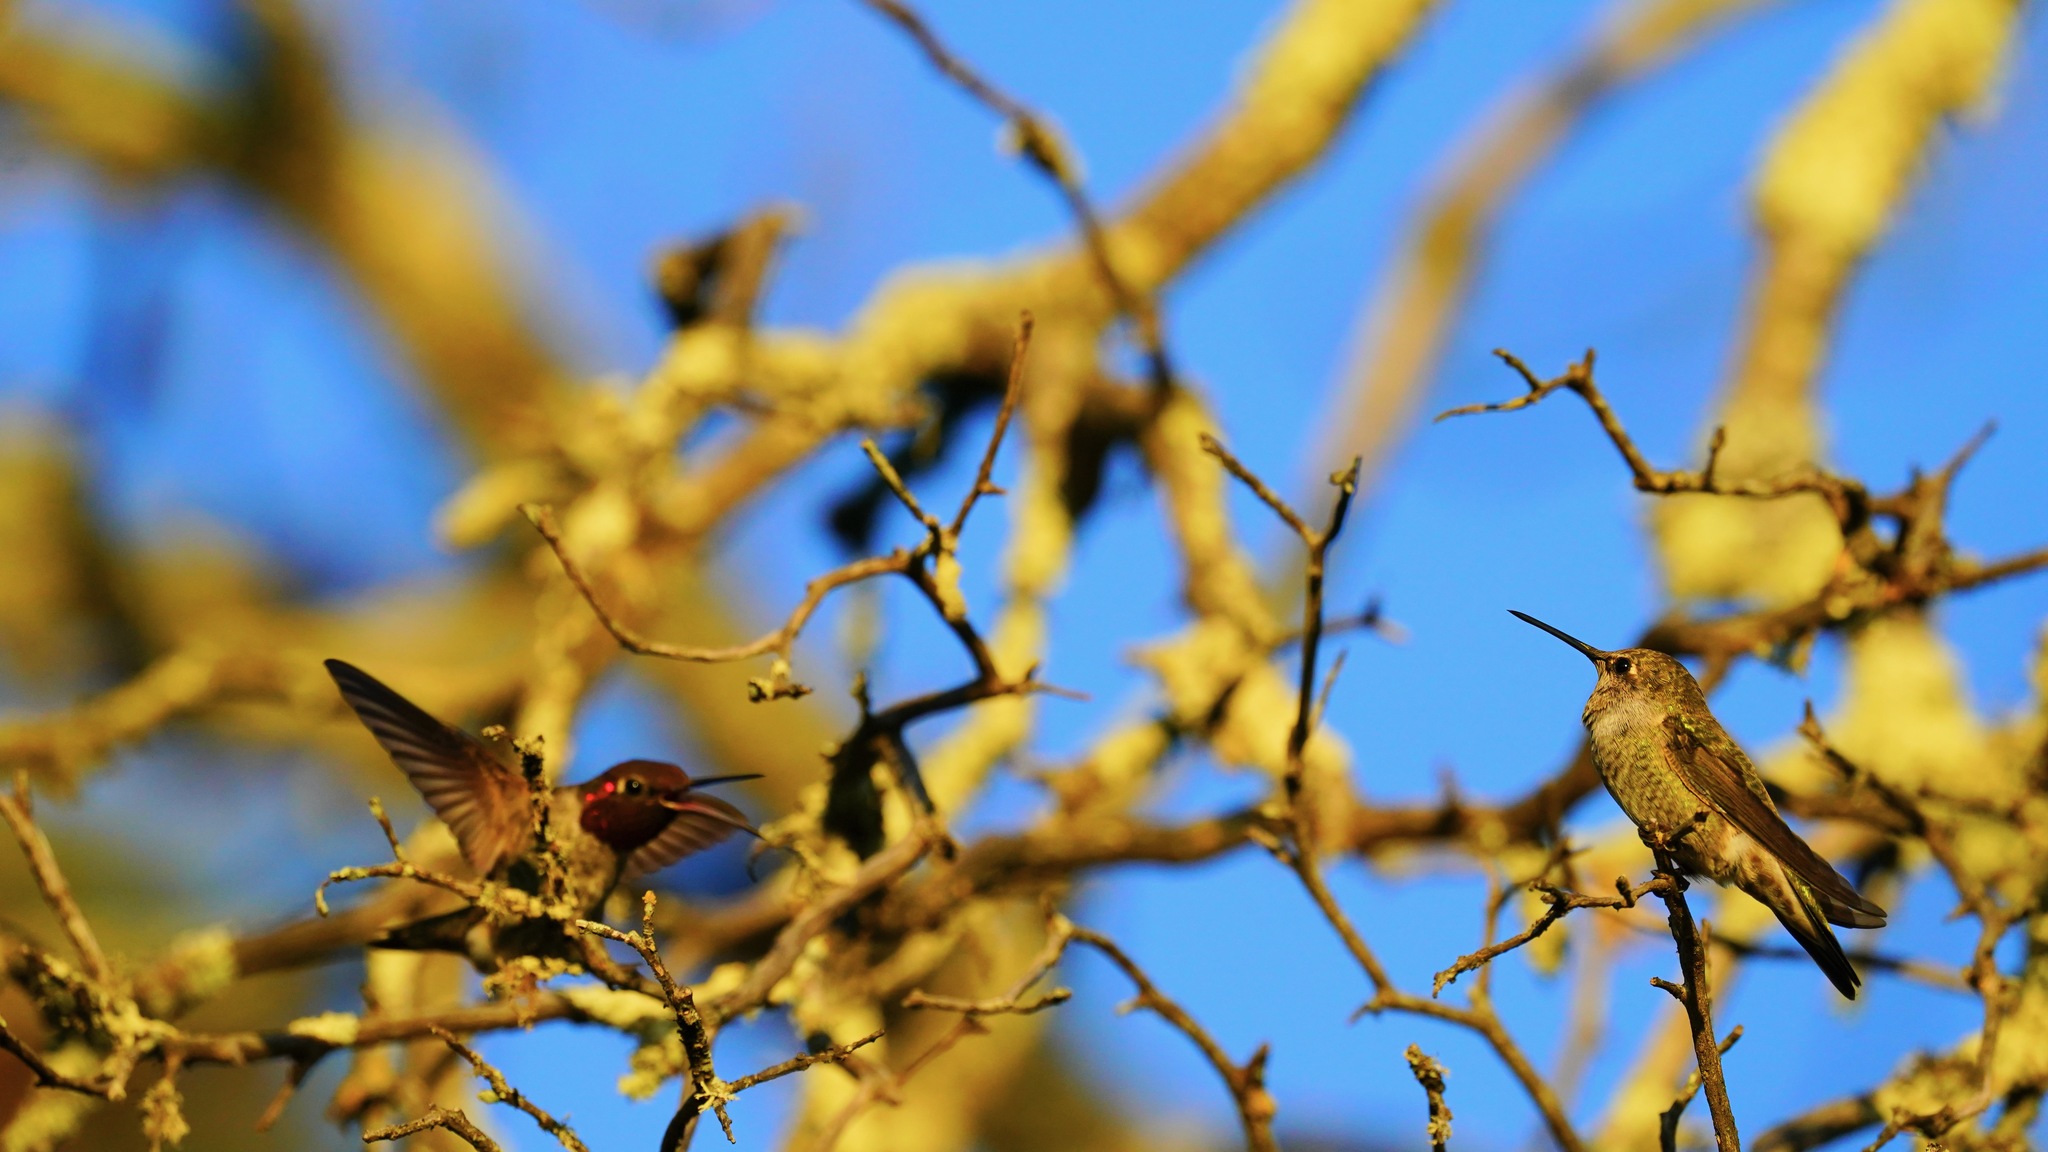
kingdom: Animalia
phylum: Chordata
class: Aves
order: Apodiformes
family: Trochilidae
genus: Calypte
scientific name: Calypte anna
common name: Anna's hummingbird
